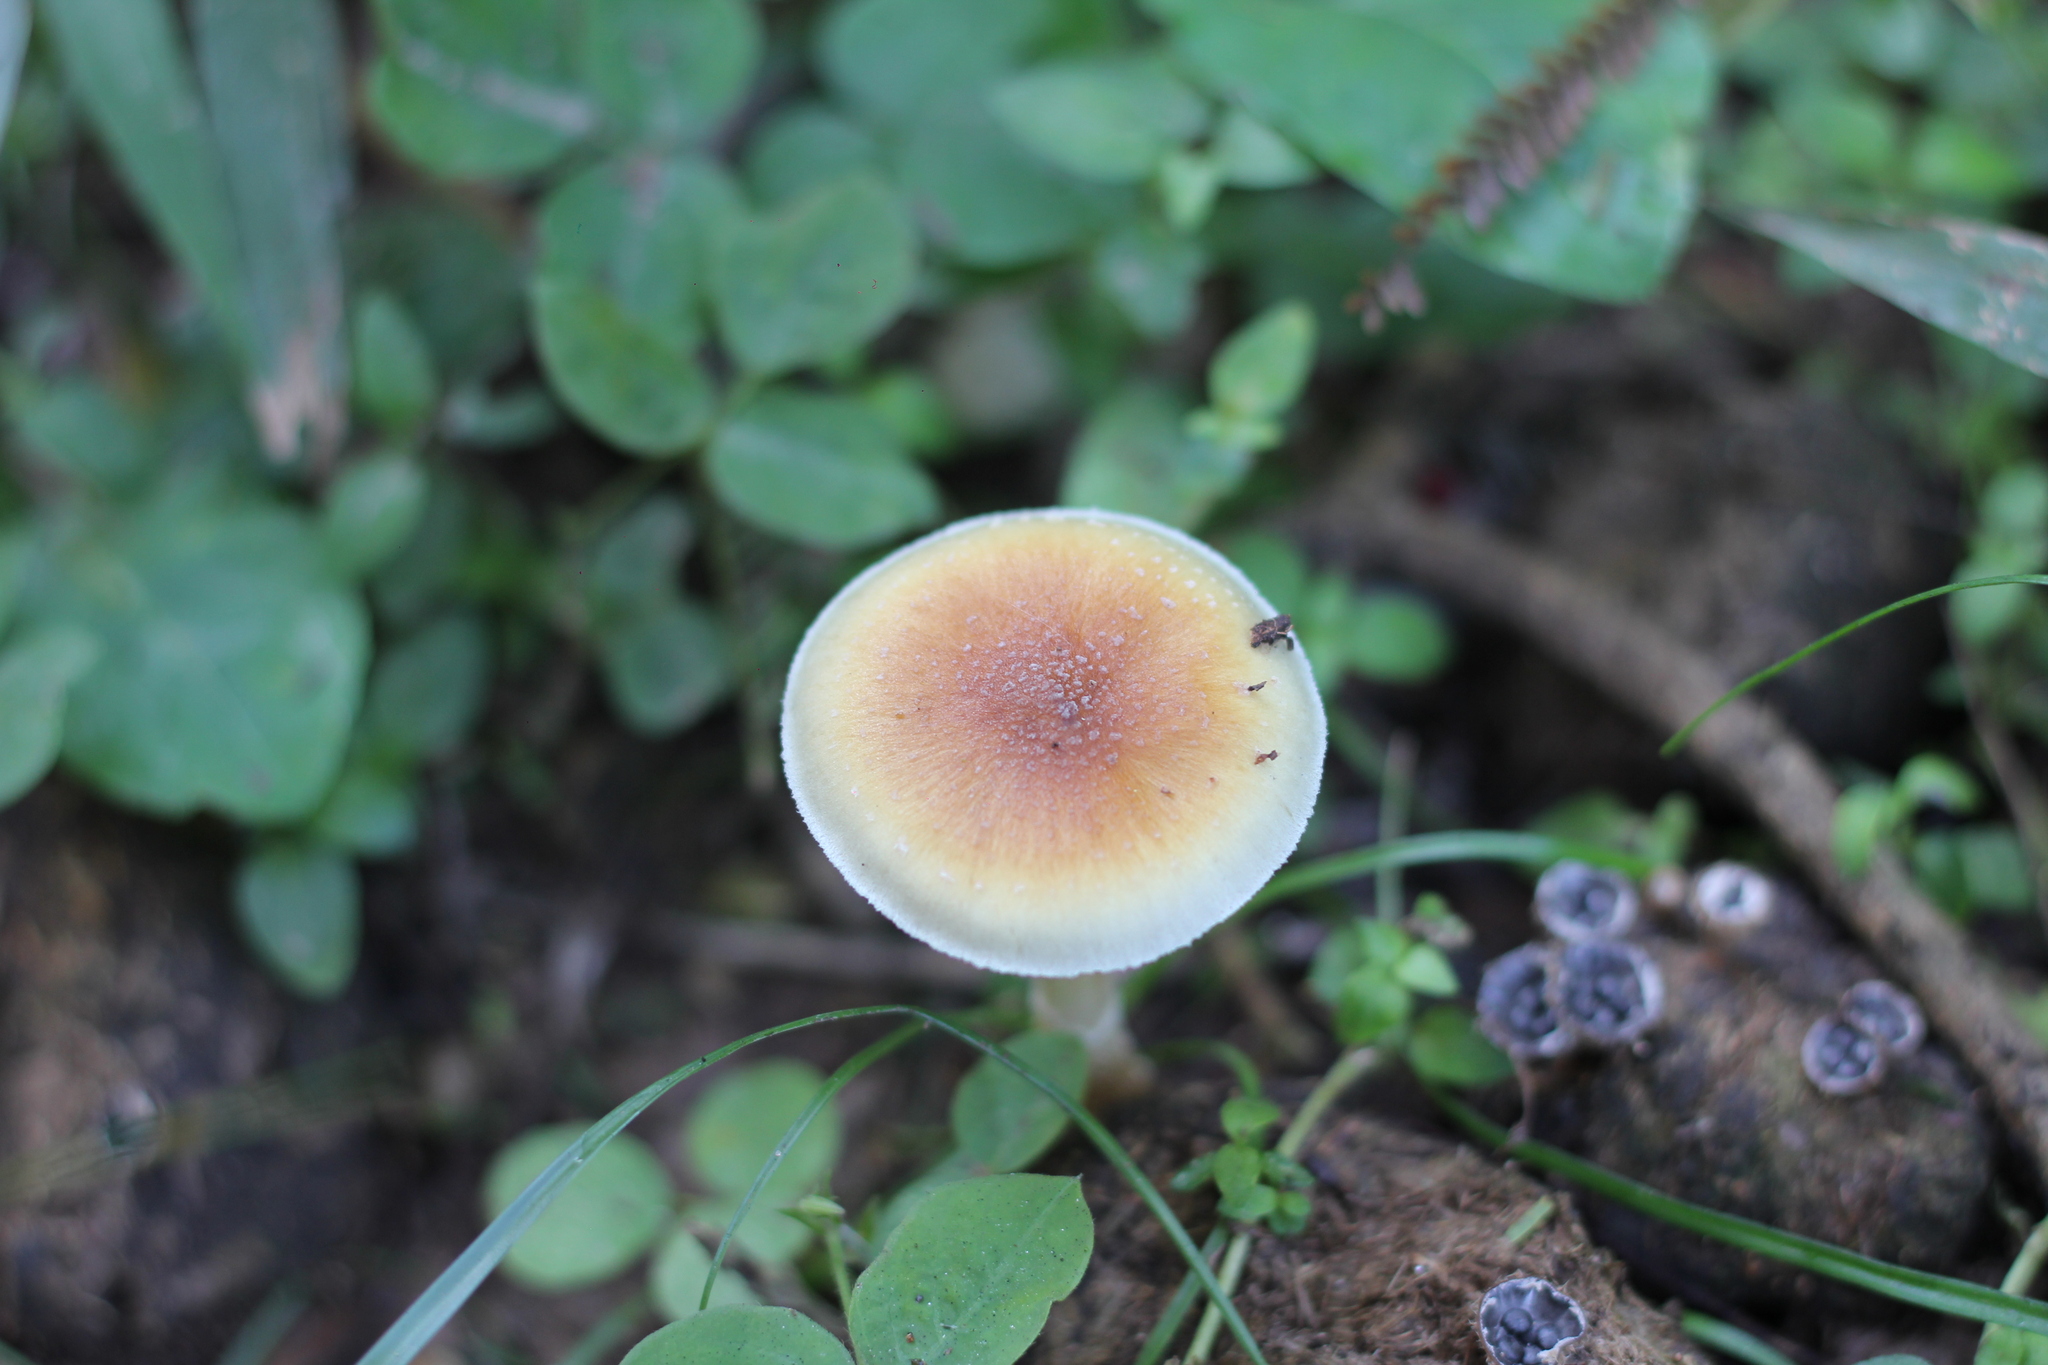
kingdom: Fungi
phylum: Basidiomycota
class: Agaricomycetes
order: Agaricales
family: Hymenogastraceae
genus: Psilocybe
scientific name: Psilocybe cubensis
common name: Golden brownie
